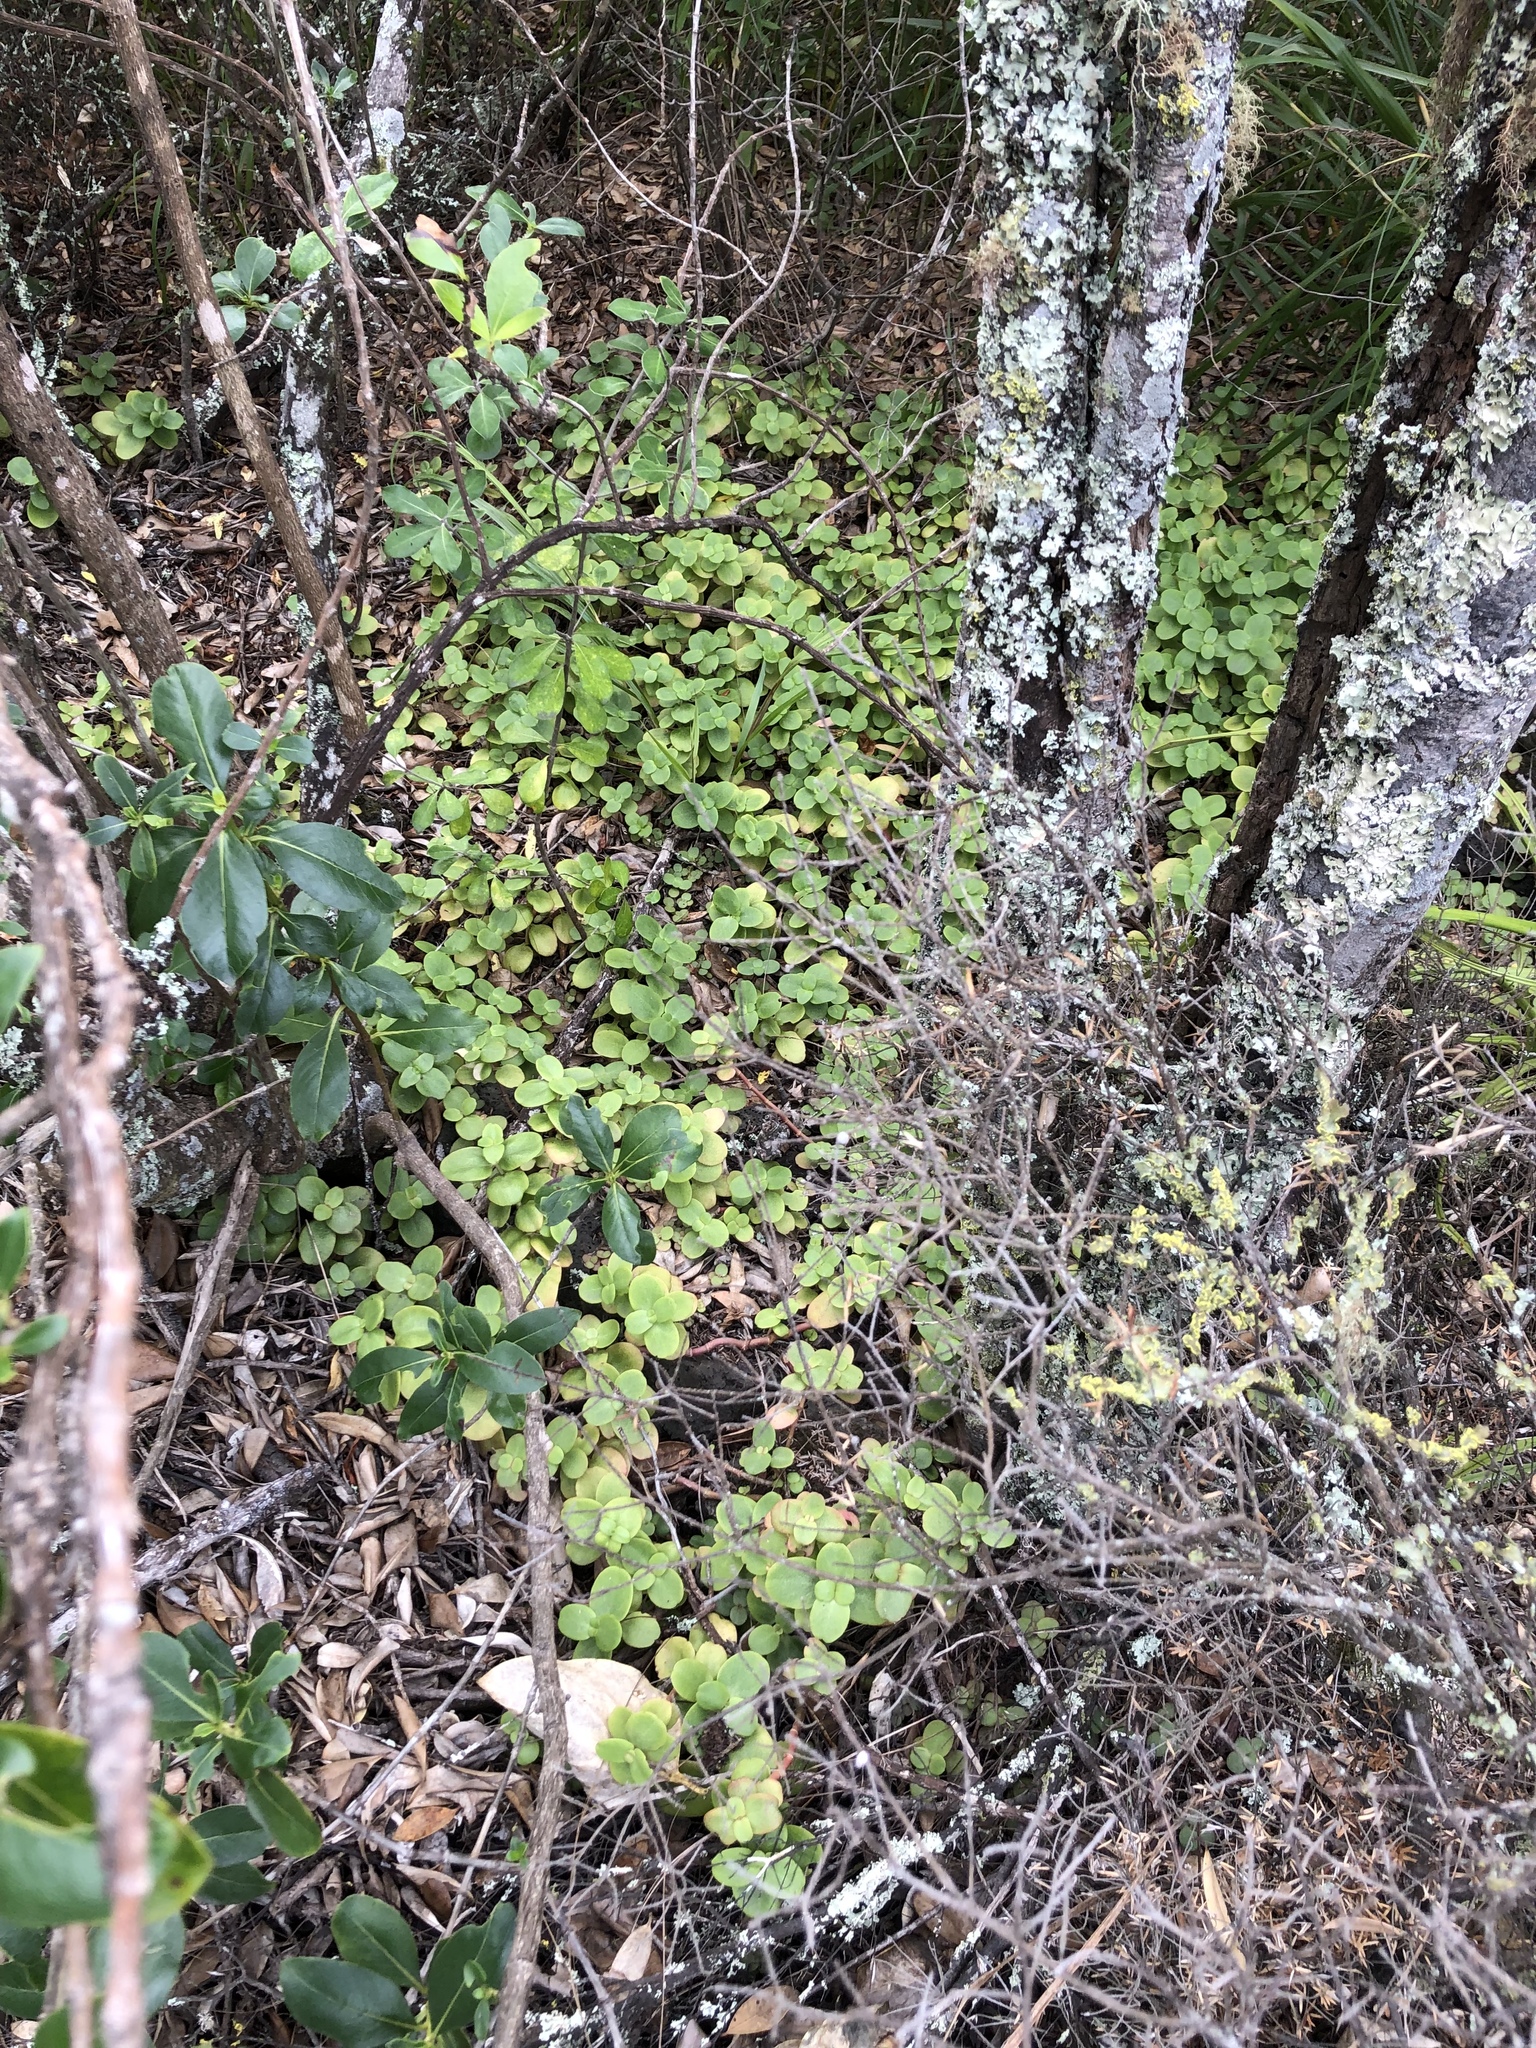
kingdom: Plantae
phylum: Tracheophyta
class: Magnoliopsida
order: Saxifragales
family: Crassulaceae
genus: Crassula
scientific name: Crassula multicava
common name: Cape province pygmyweed
